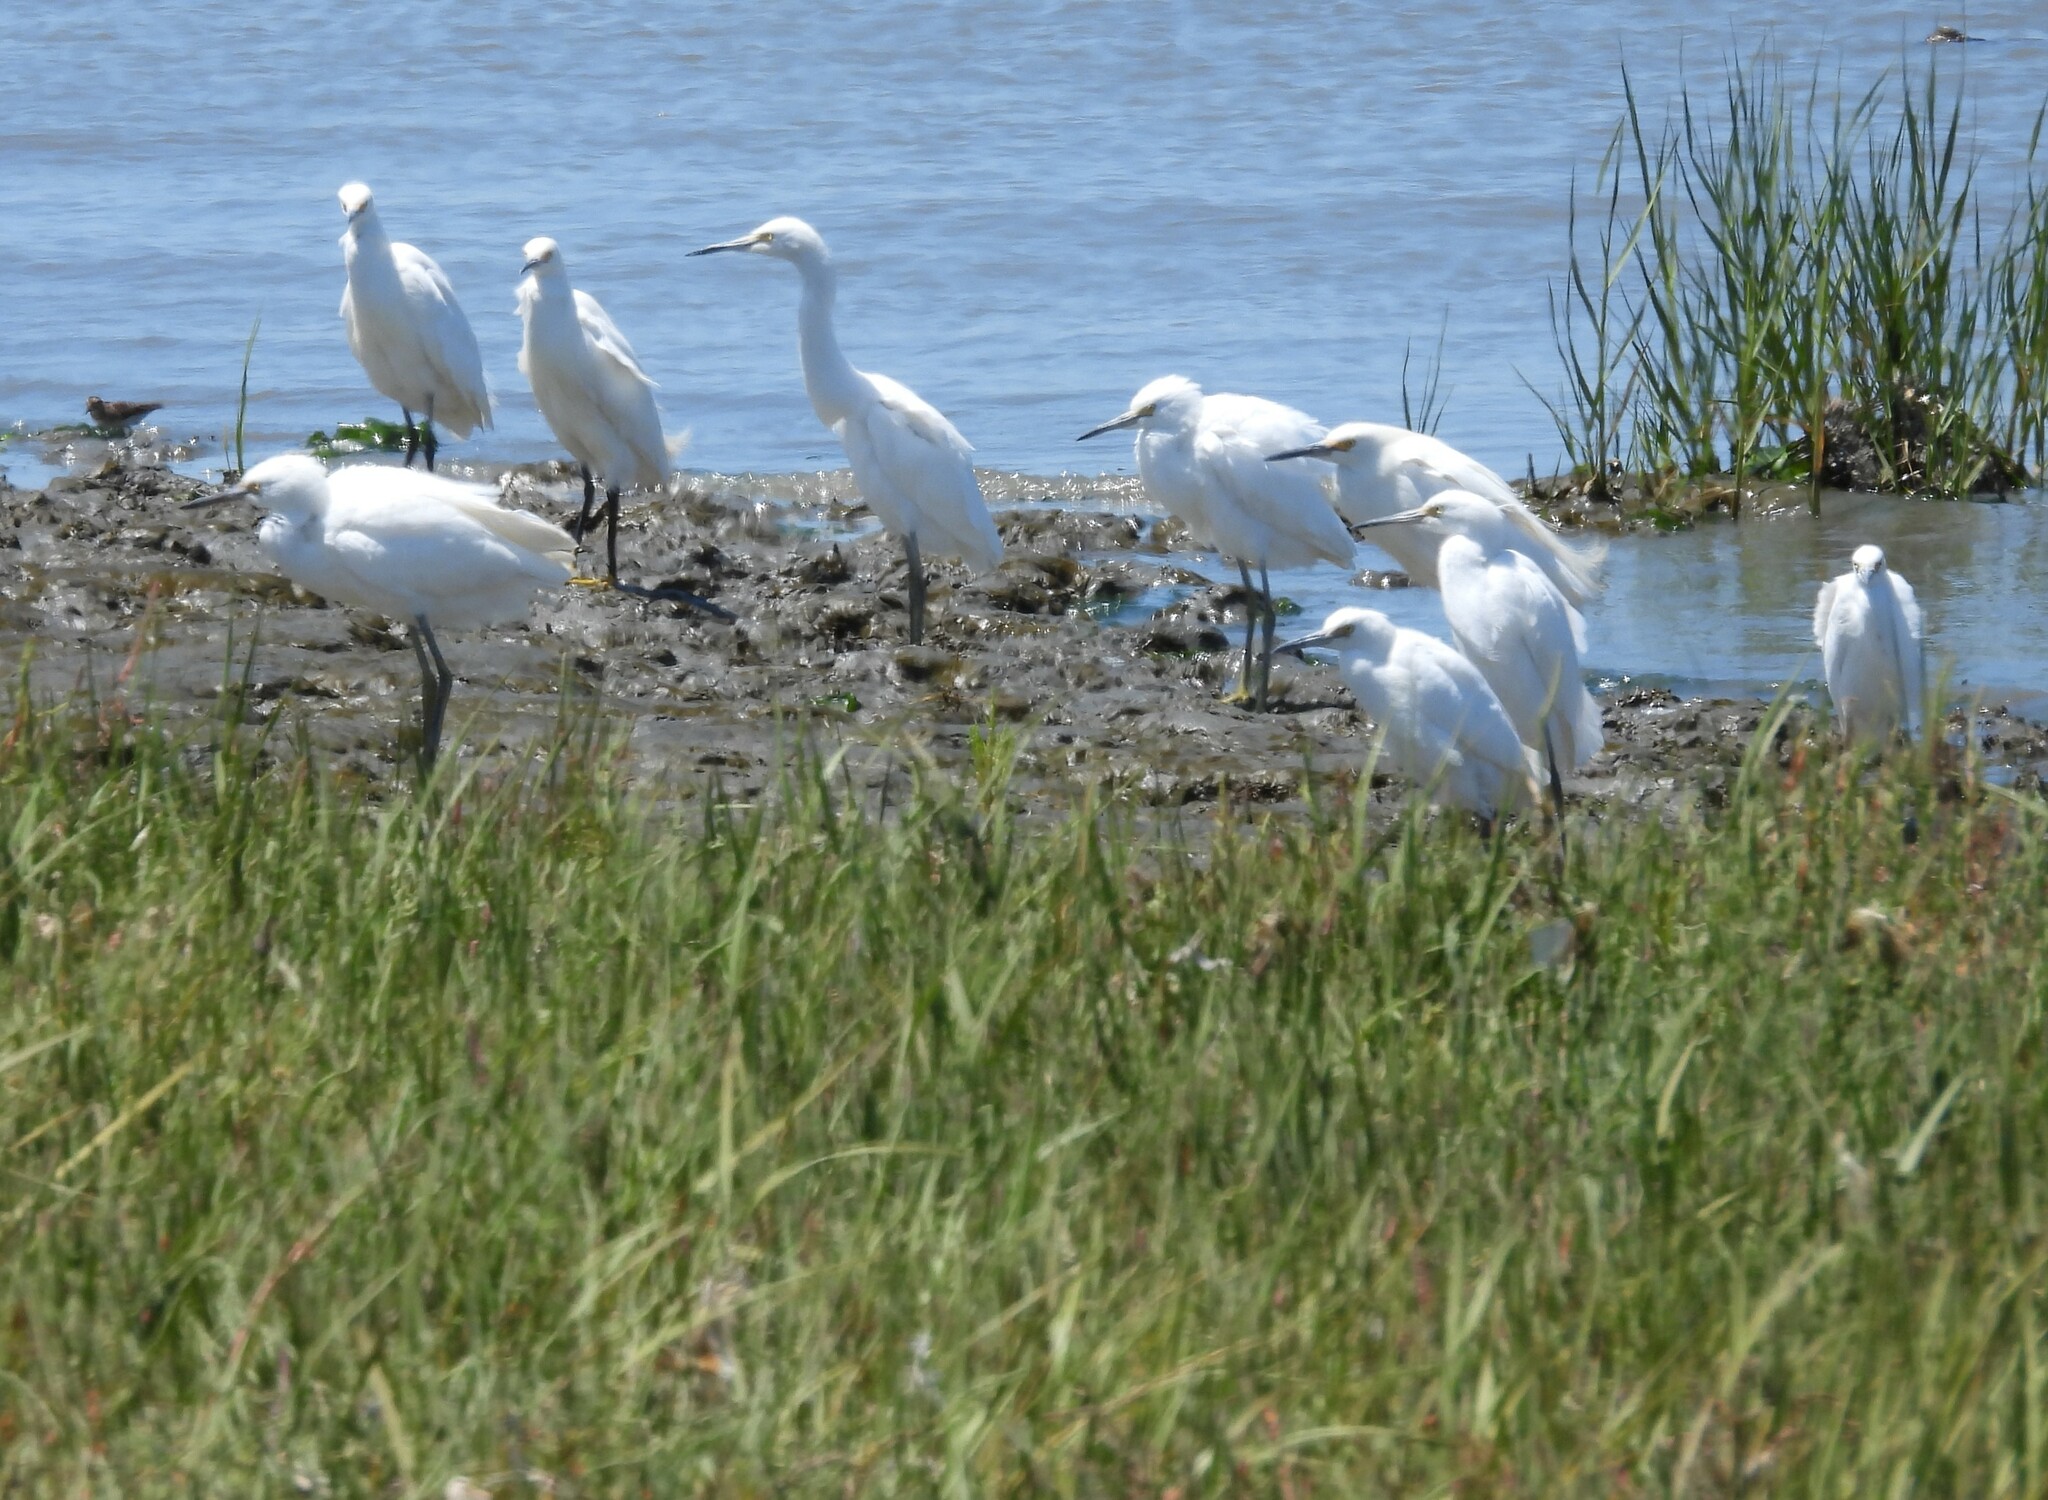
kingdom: Animalia
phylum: Chordata
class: Aves
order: Pelecaniformes
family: Ardeidae
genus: Egretta
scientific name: Egretta thula
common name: Snowy egret
